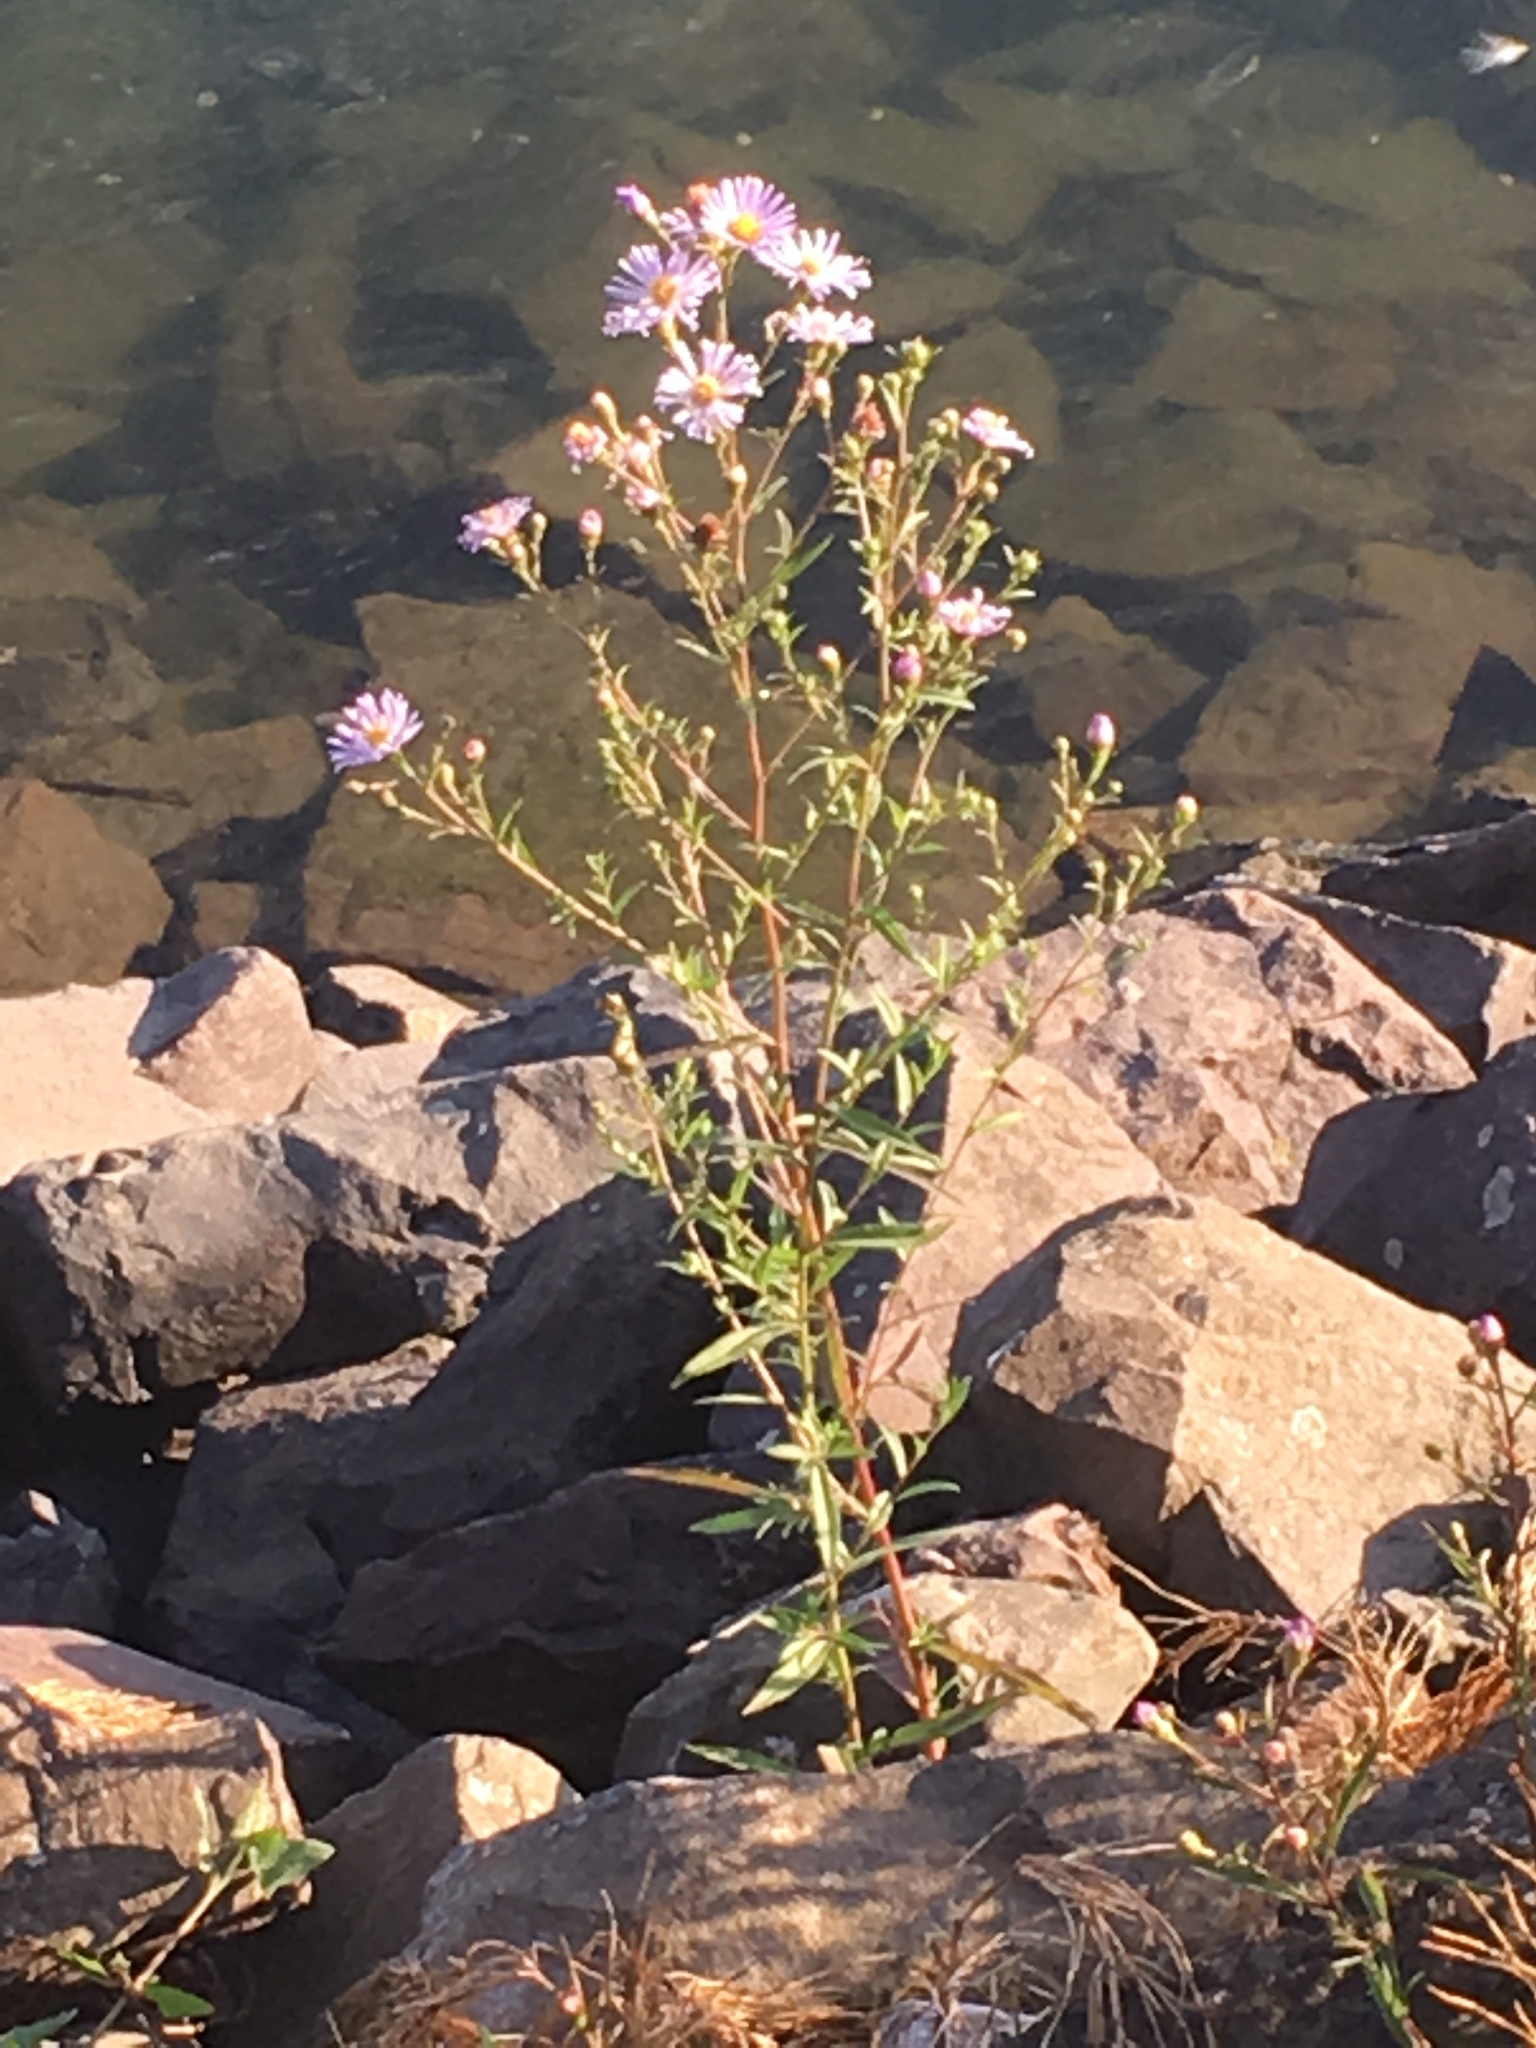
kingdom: Plantae
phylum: Tracheophyta
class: Magnoliopsida
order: Asterales
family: Asteraceae
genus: Symphyotrichum
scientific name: Symphyotrichum chilense
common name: Pacific aster
